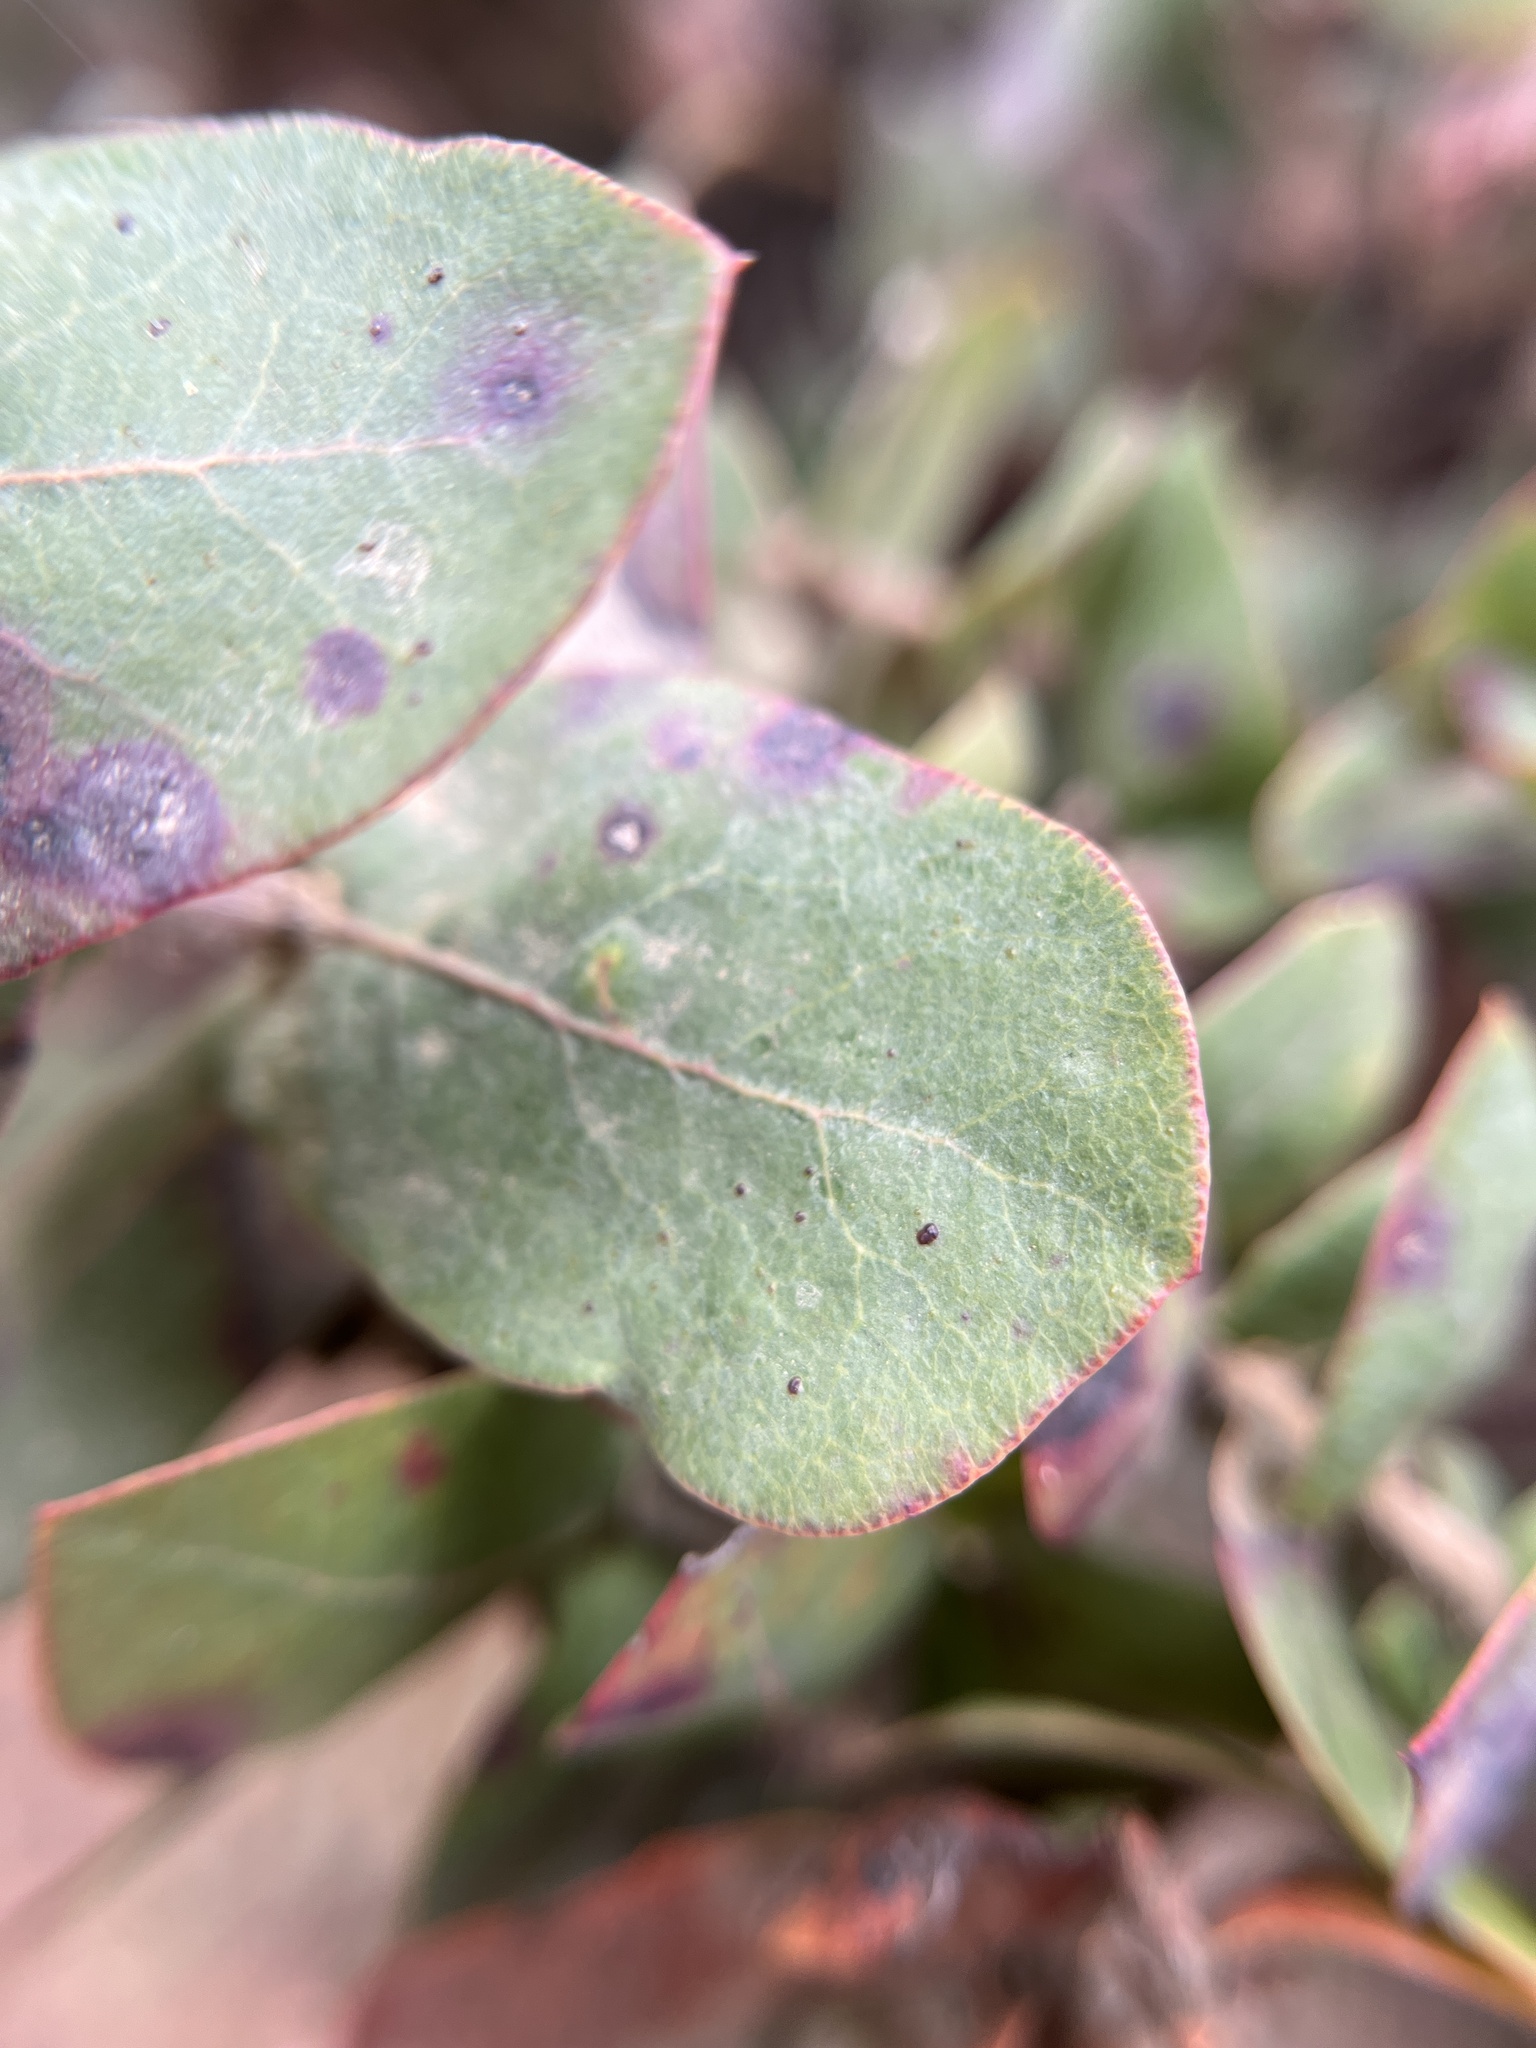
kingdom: Plantae
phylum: Tracheophyta
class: Magnoliopsida
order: Ericales
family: Ericaceae
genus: Arctostaphylos
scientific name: Arctostaphylos pajaroensis
